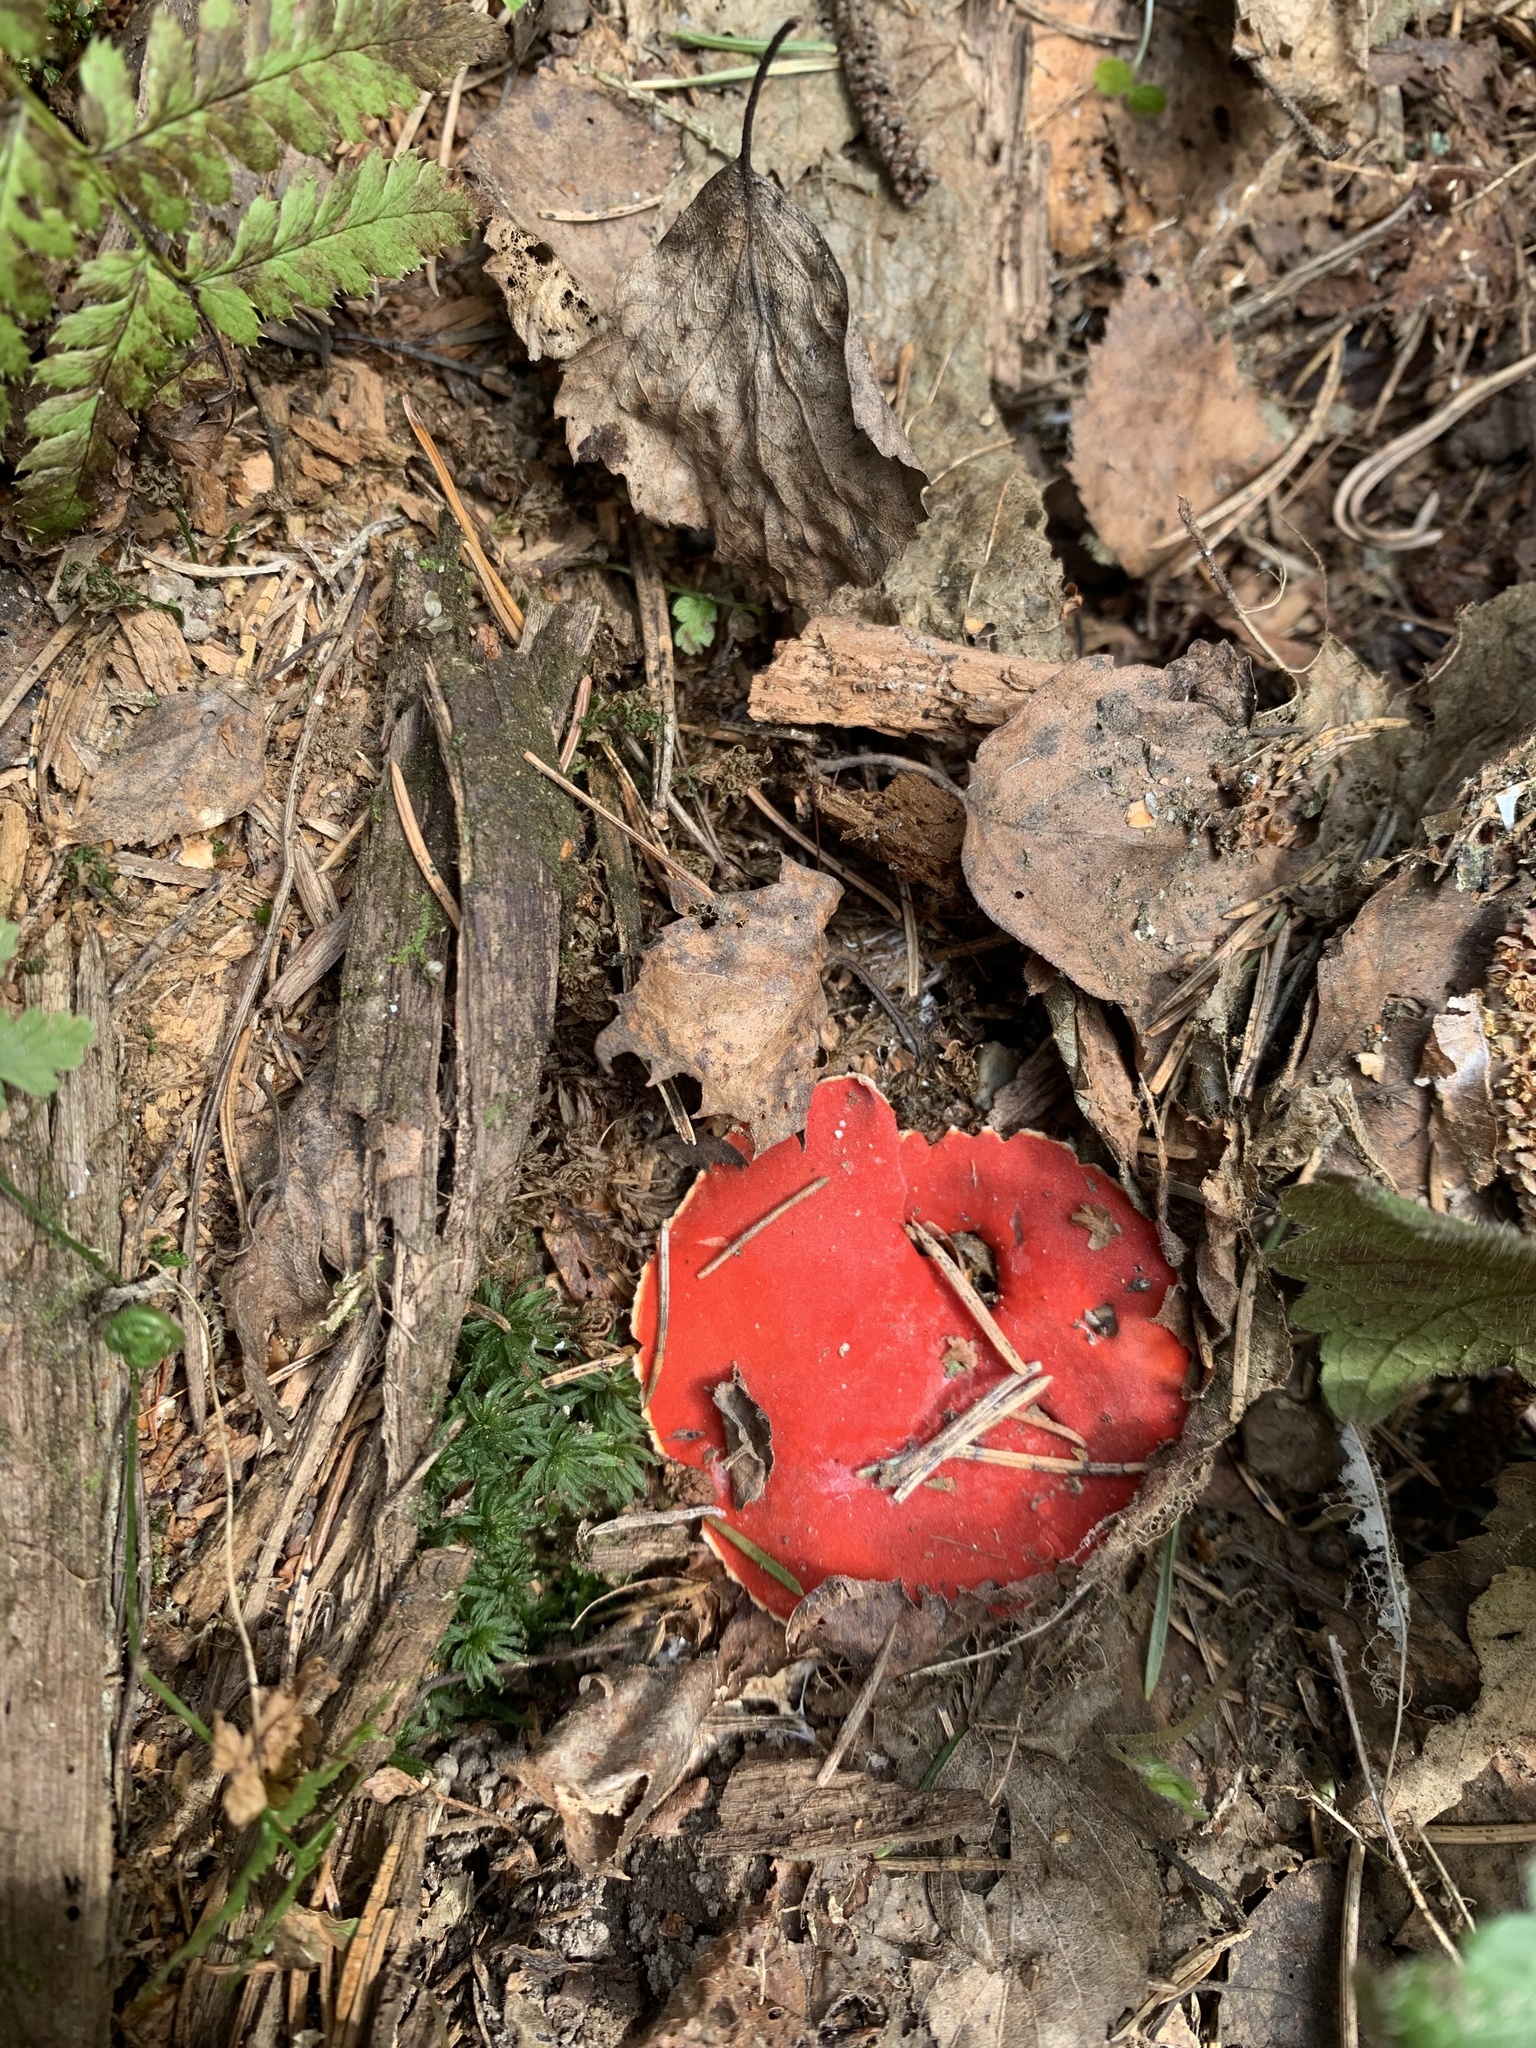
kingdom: Fungi
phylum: Ascomycota
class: Pezizomycetes
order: Pezizales
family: Sarcoscyphaceae
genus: Sarcoscypha
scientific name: Sarcoscypha austriaca
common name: Scarlet elfcup
